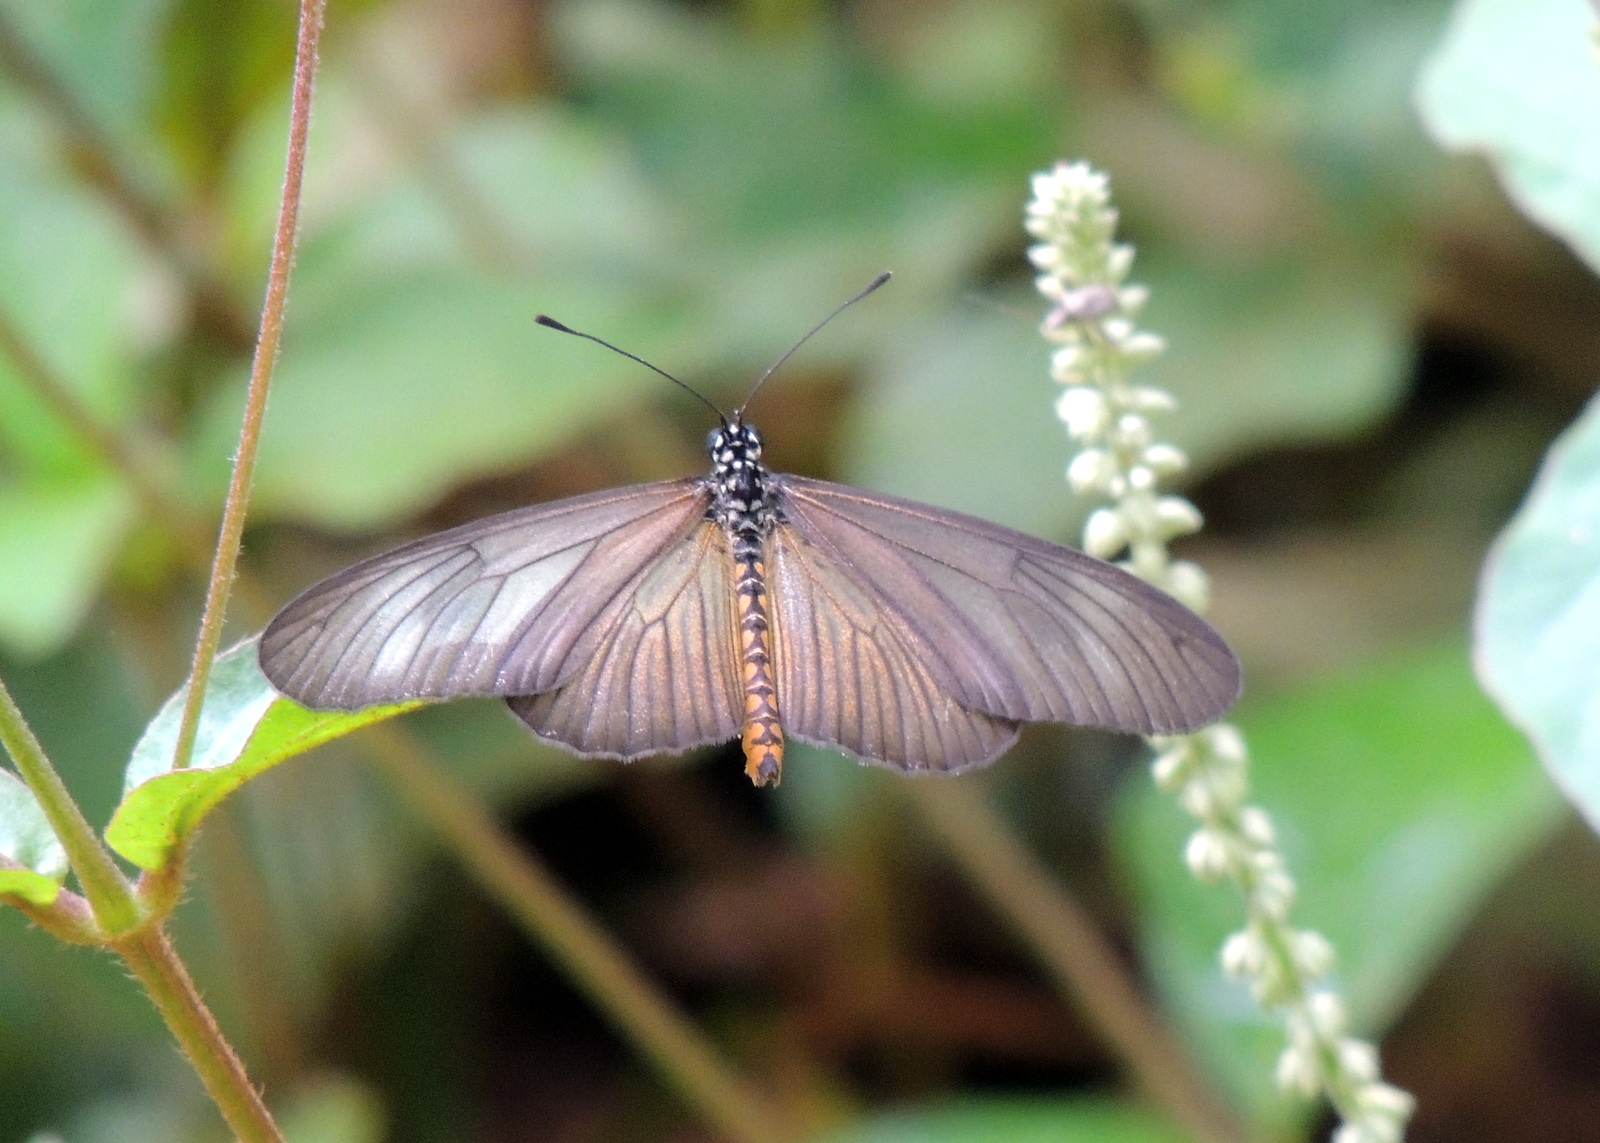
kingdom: Animalia
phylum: Arthropoda
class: Insecta
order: Lepidoptera
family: Nymphalidae
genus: Acraea
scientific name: Acraea Telchinia lycoa
